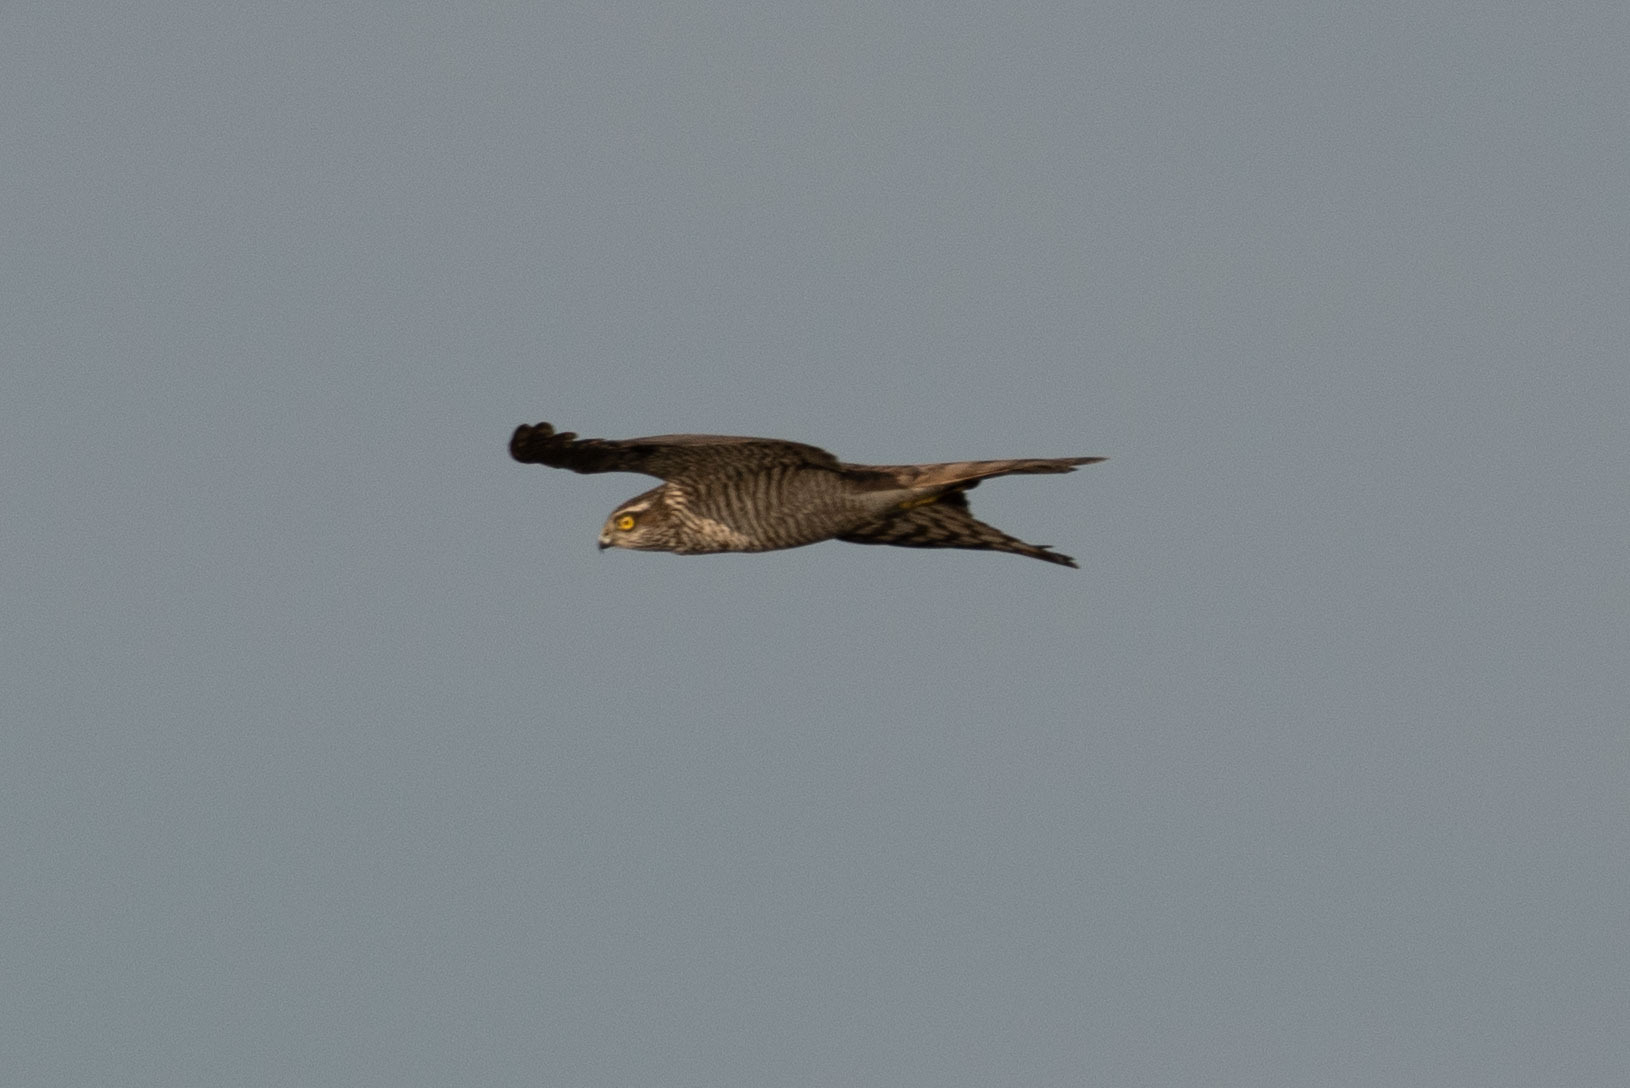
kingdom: Animalia
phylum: Chordata
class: Aves
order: Accipitriformes
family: Accipitridae
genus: Accipiter
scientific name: Accipiter nisus
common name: Eurasian sparrowhawk
